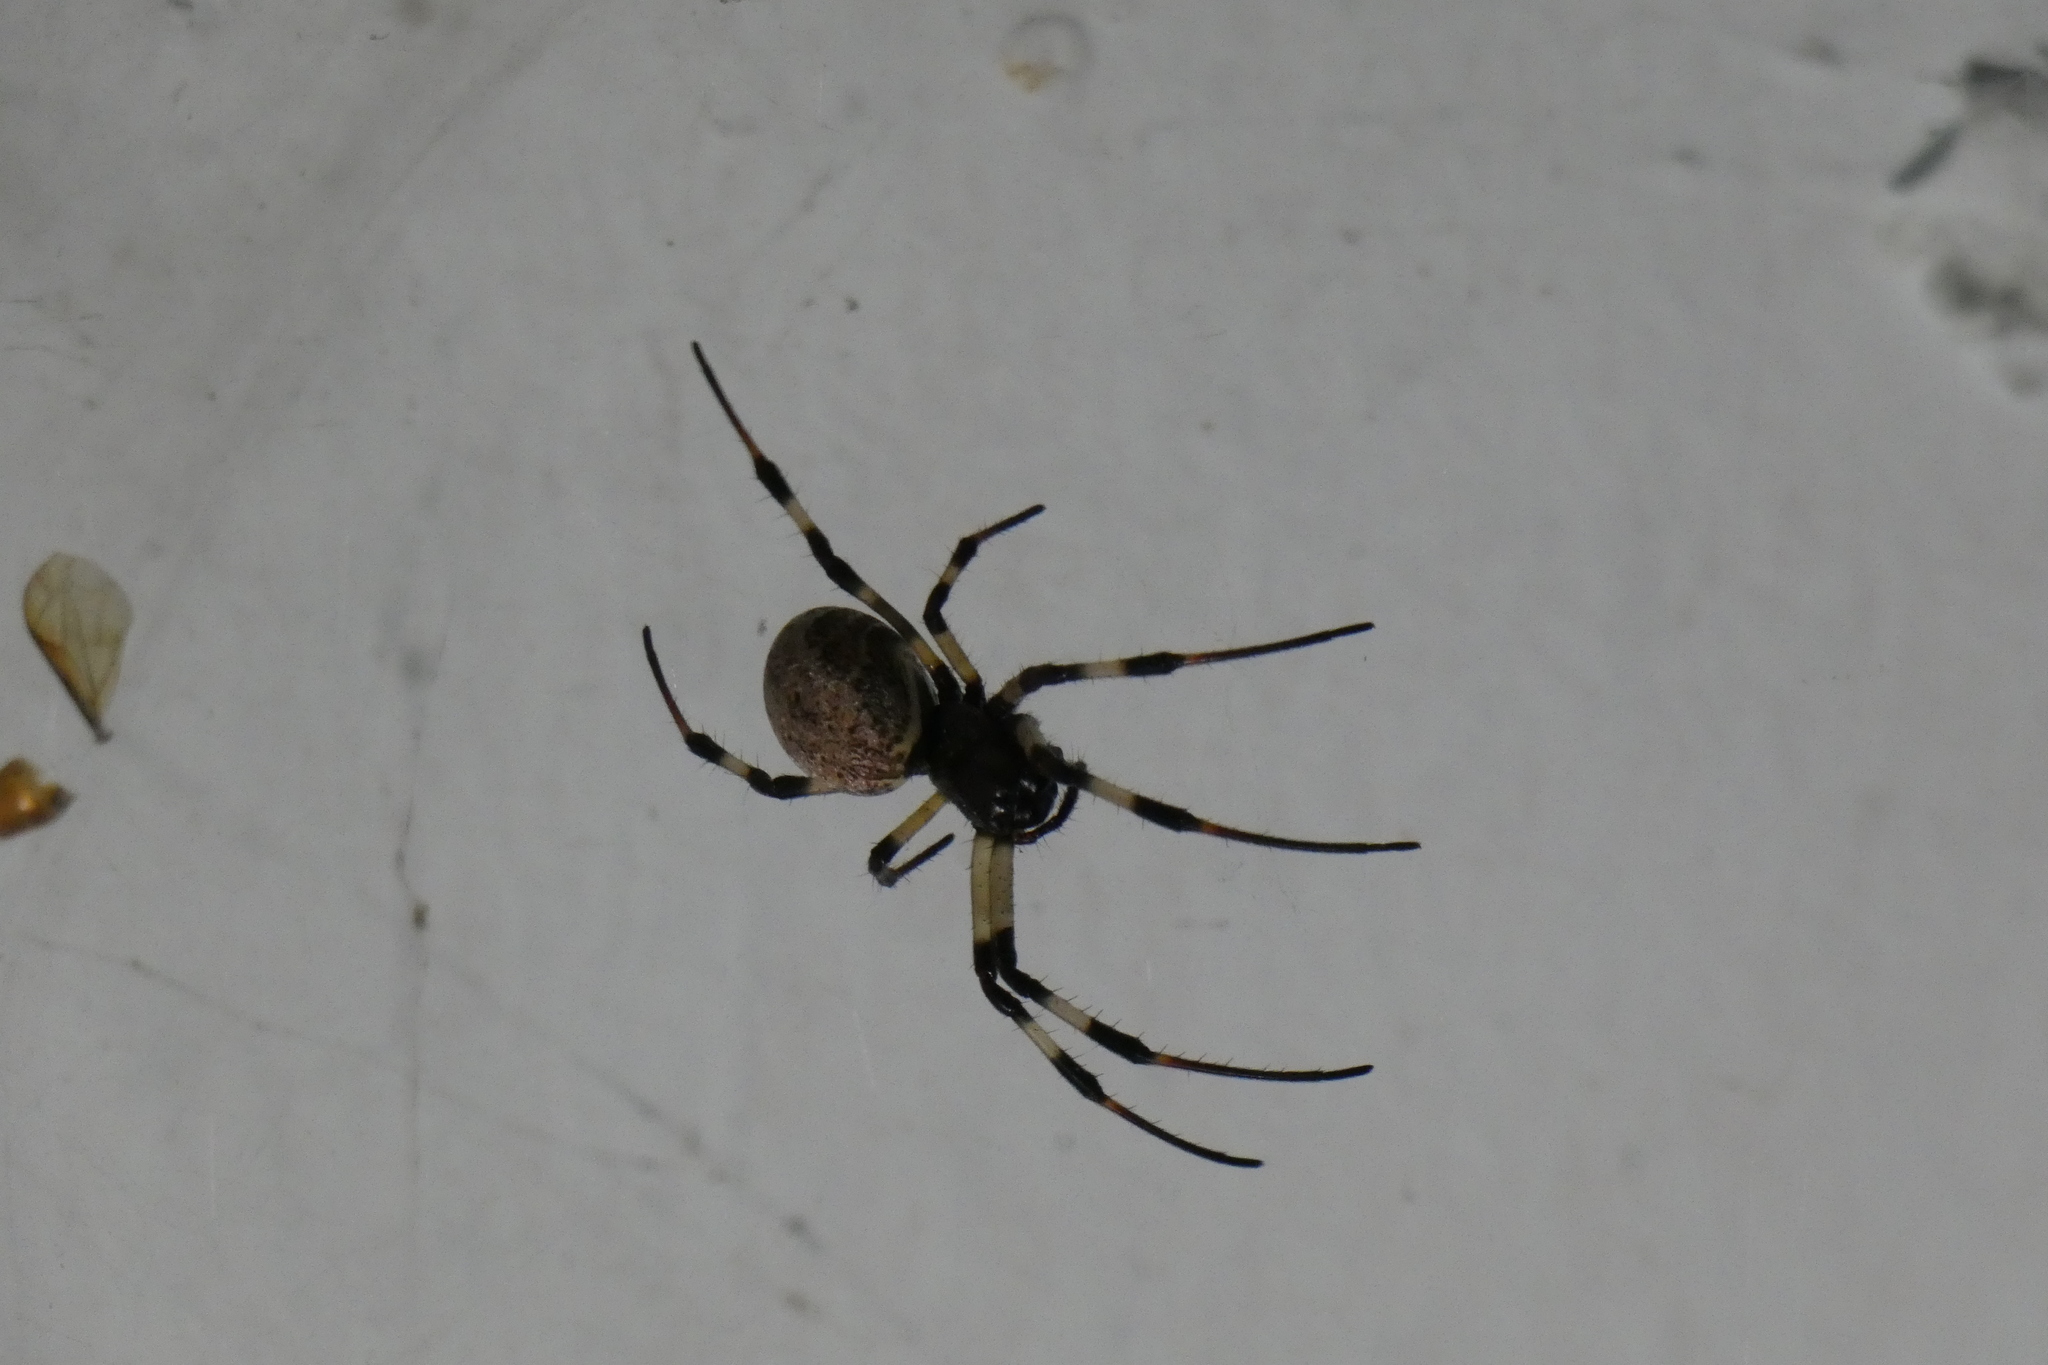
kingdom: Animalia
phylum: Arthropoda
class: Arachnida
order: Araneae
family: Araneidae
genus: Nephilengys
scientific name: Nephilengys malabarensis
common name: Asian hermit spider
